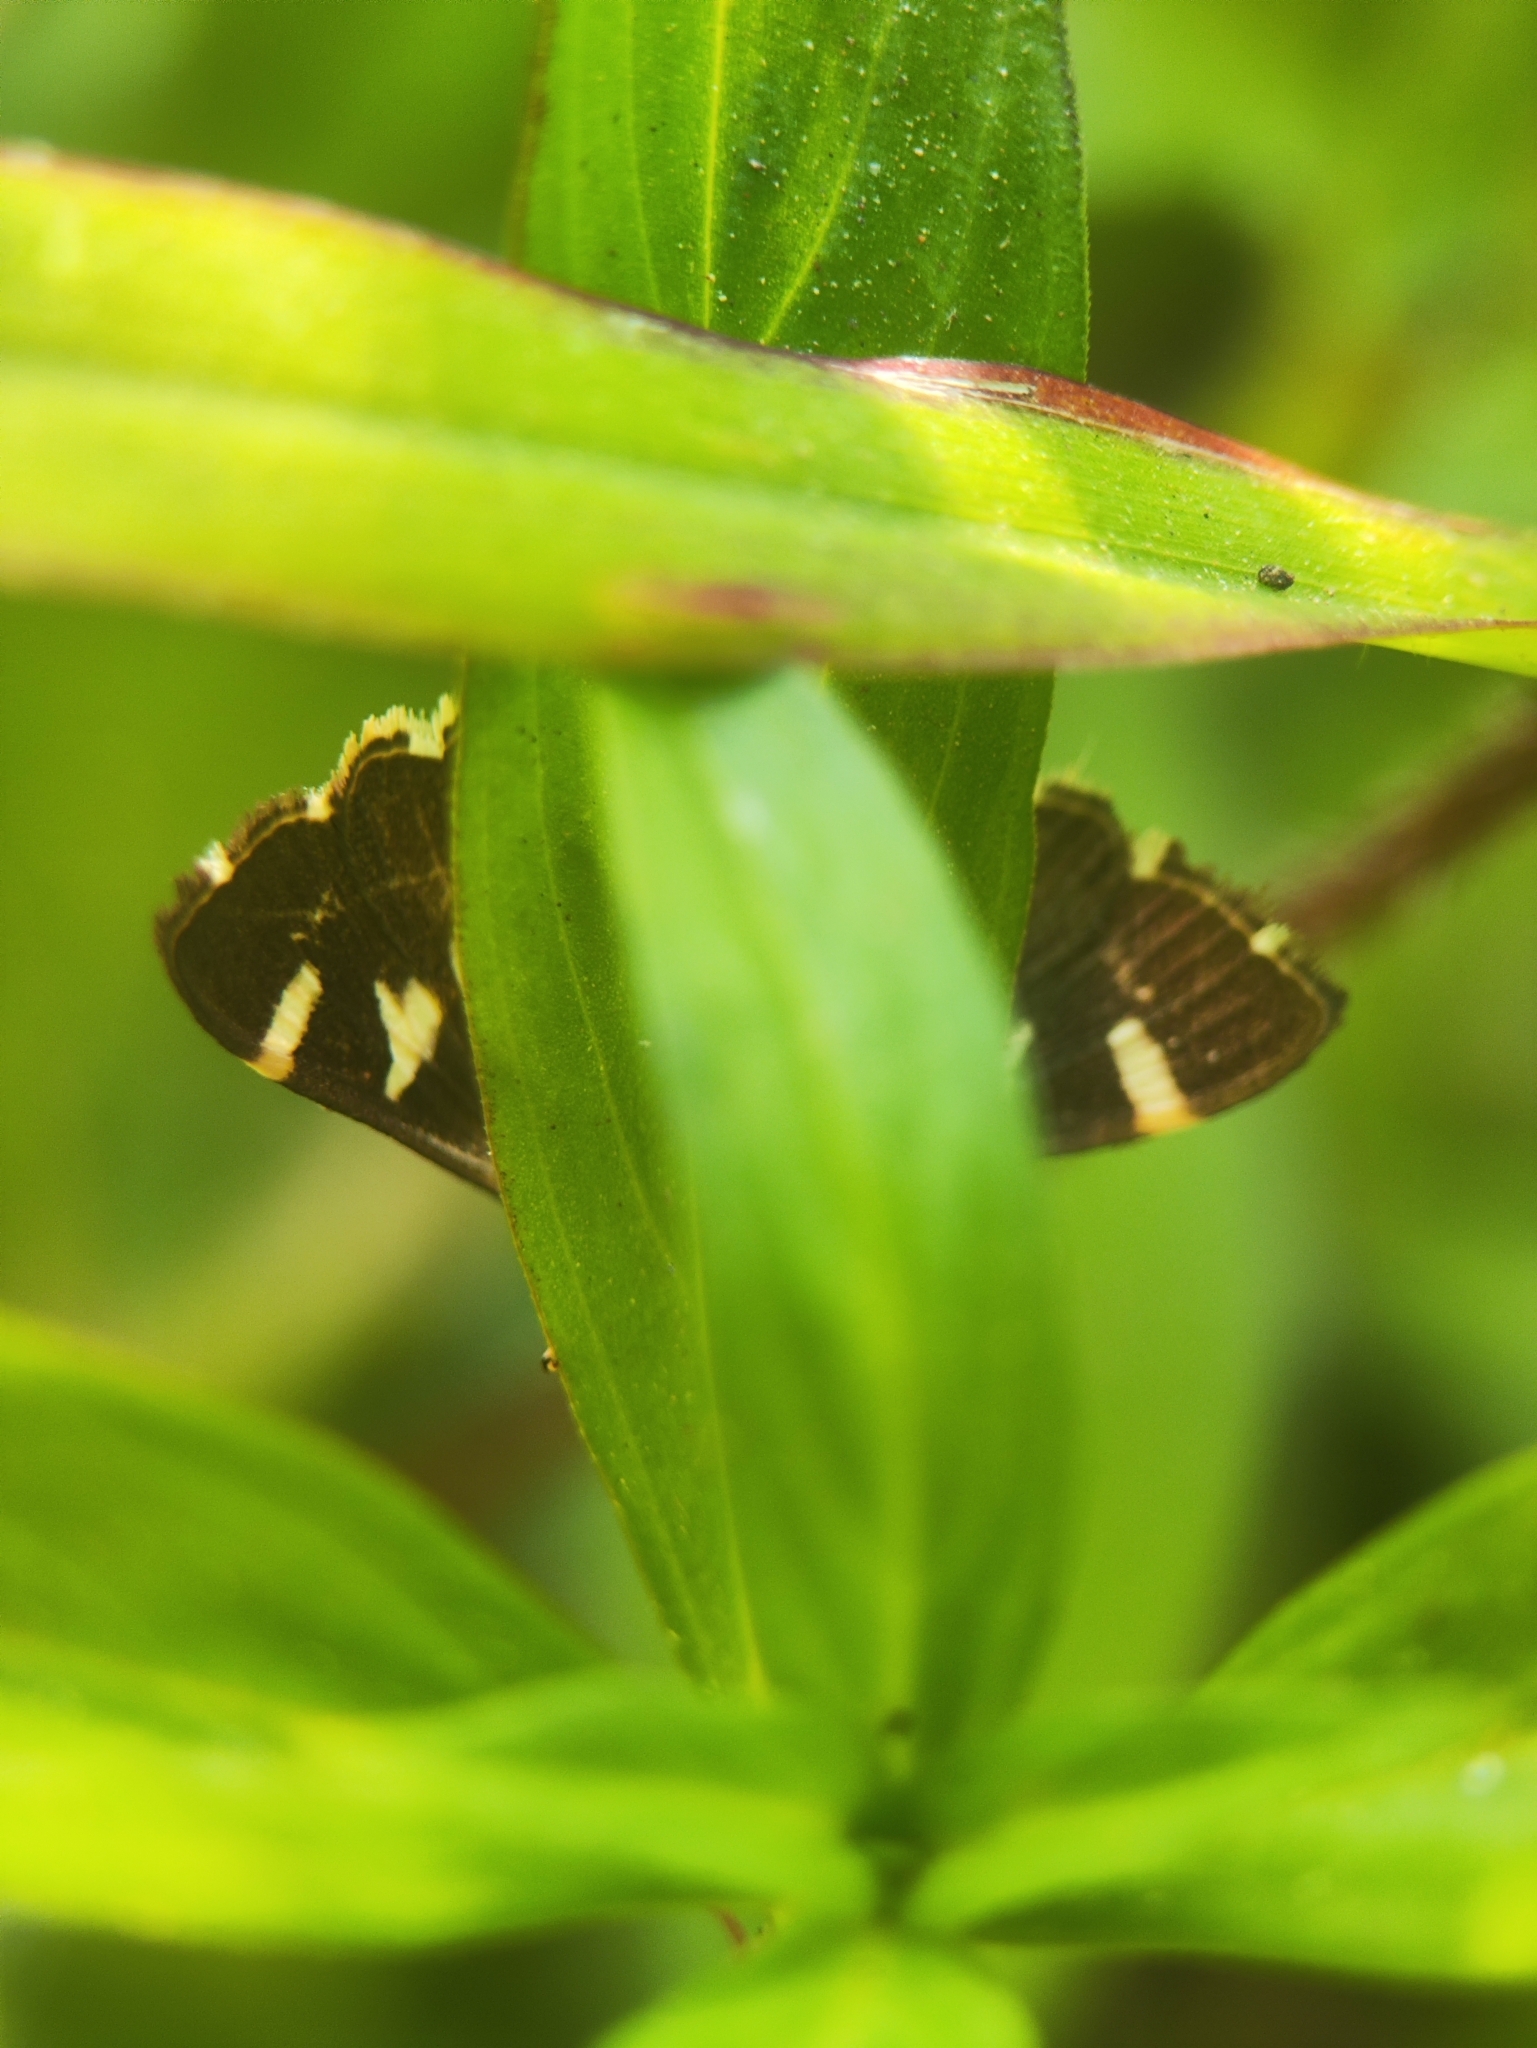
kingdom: Animalia
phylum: Arthropoda
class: Insecta
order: Lepidoptera
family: Crambidae
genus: Spoladea
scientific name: Spoladea recurvalis
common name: Beet webworm moth
